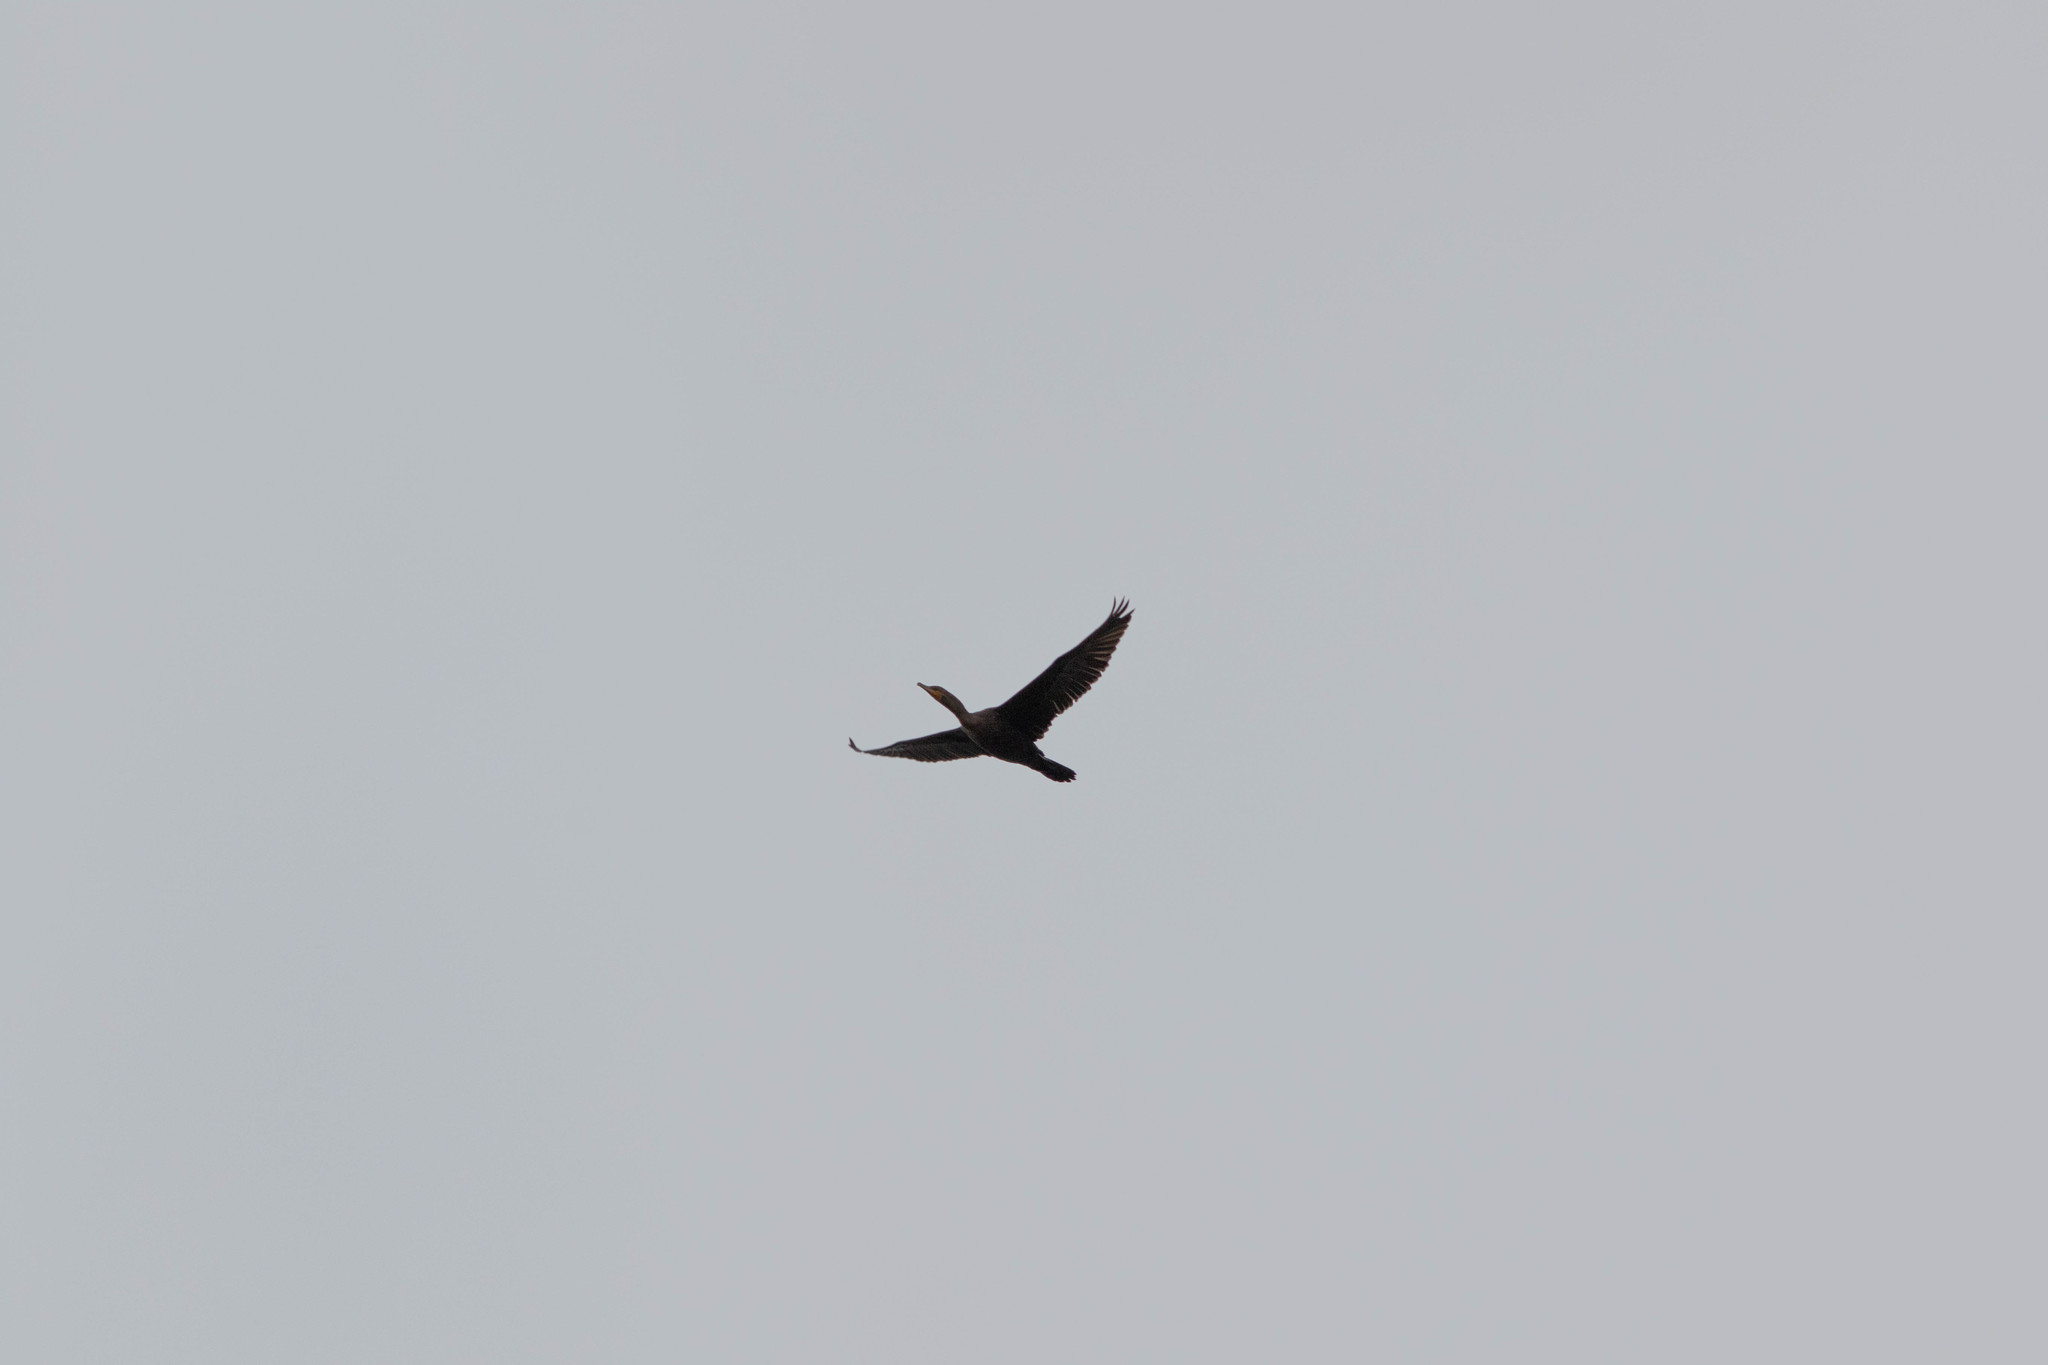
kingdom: Animalia
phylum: Chordata
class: Aves
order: Suliformes
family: Phalacrocoracidae
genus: Phalacrocorax
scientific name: Phalacrocorax auritus
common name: Double-crested cormorant
